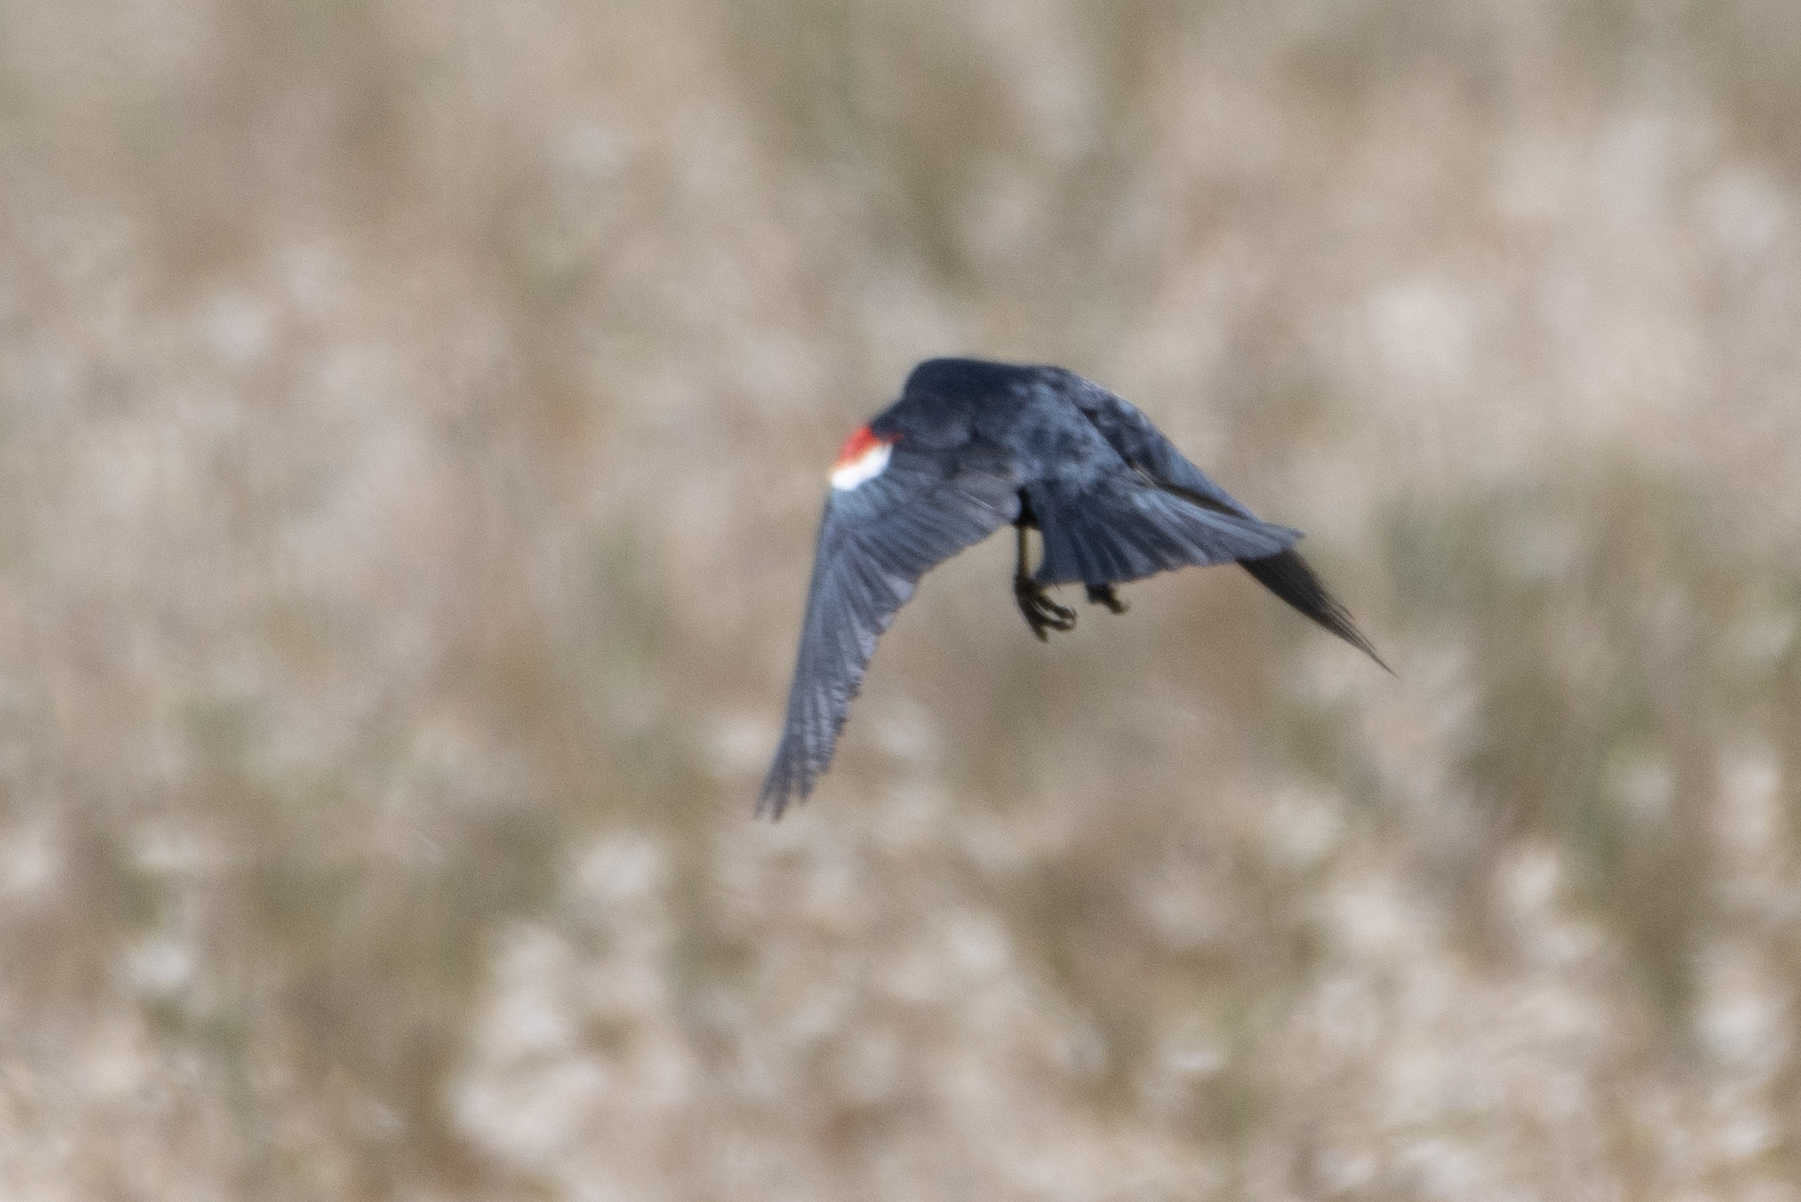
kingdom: Animalia
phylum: Chordata
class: Aves
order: Passeriformes
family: Icteridae
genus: Agelaius
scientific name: Agelaius tricolor
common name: Tricolored blackbird
